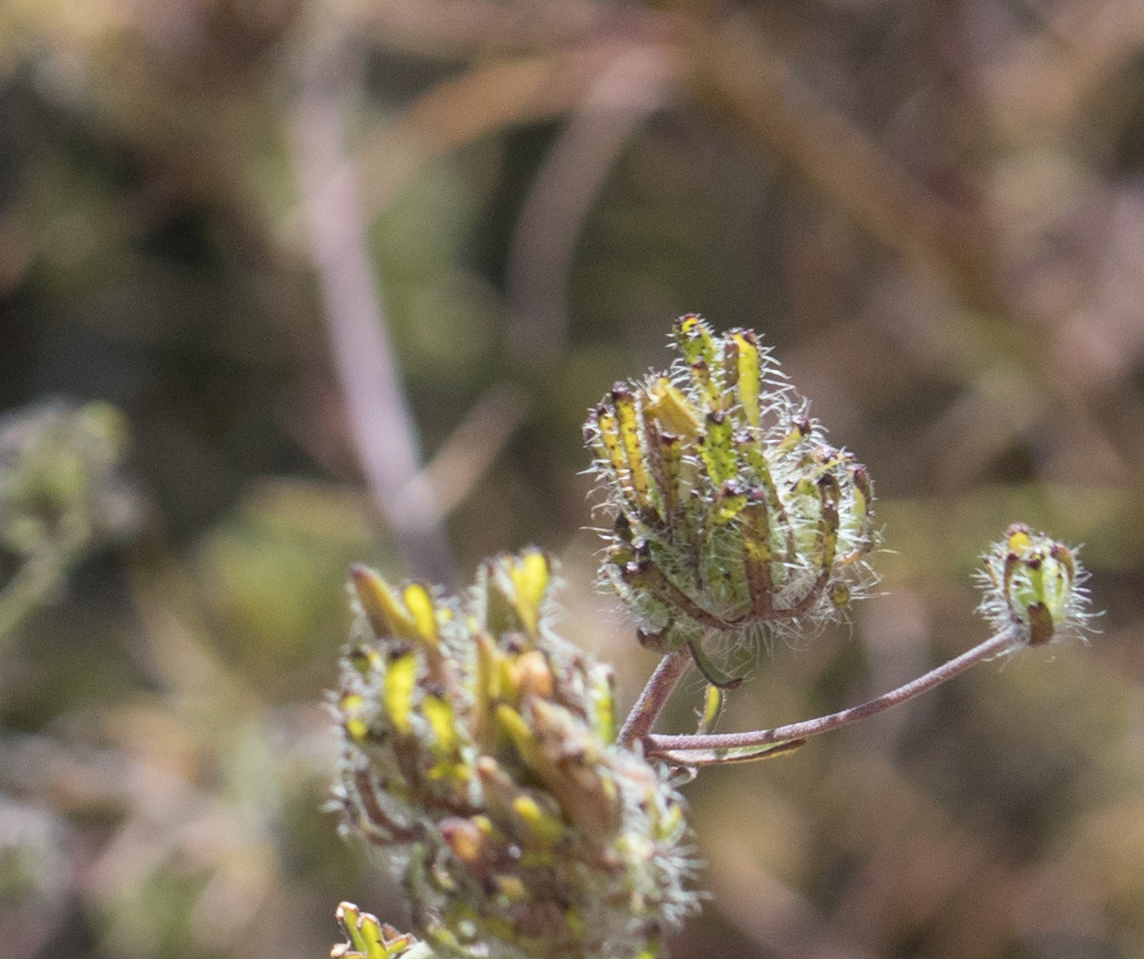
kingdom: Plantae
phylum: Tracheophyta
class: Magnoliopsida
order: Lamiales
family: Orobanchaceae
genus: Cordylanthus
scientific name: Cordylanthus rigidus
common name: Stiff-branch bird's-beak
